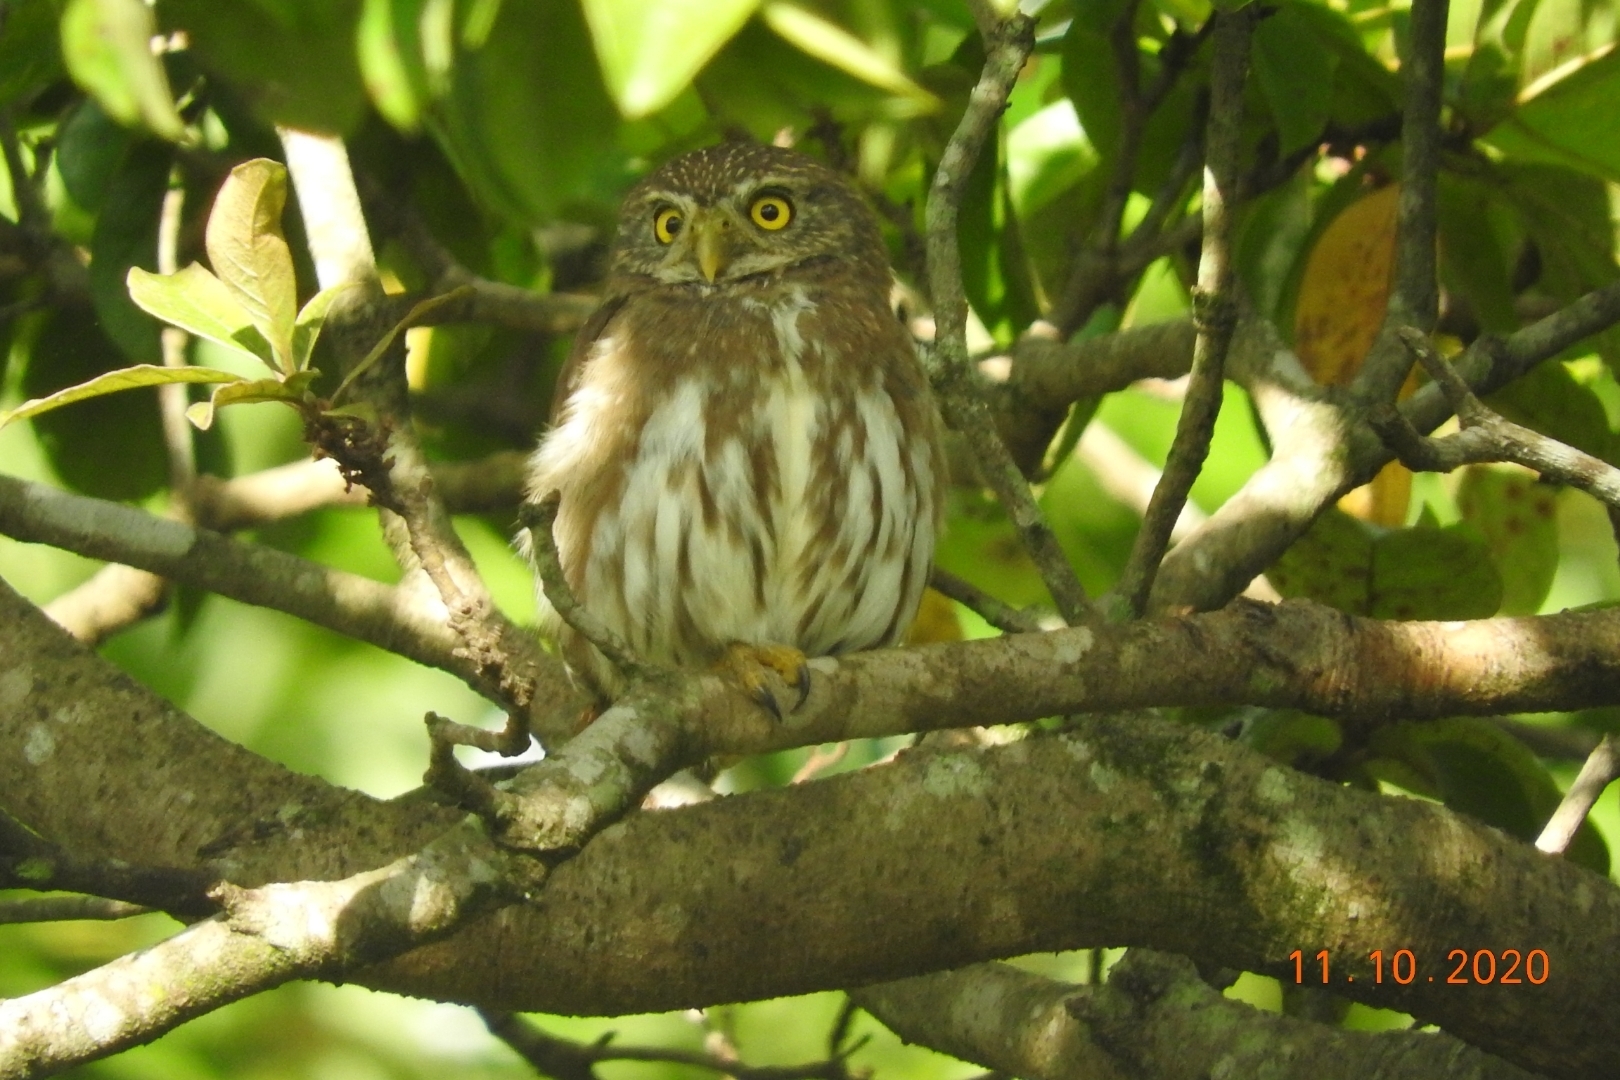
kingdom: Animalia
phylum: Chordata
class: Aves
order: Strigiformes
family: Strigidae
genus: Glaucidium
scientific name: Glaucidium brasilianum
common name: Ferruginous pygmy-owl
